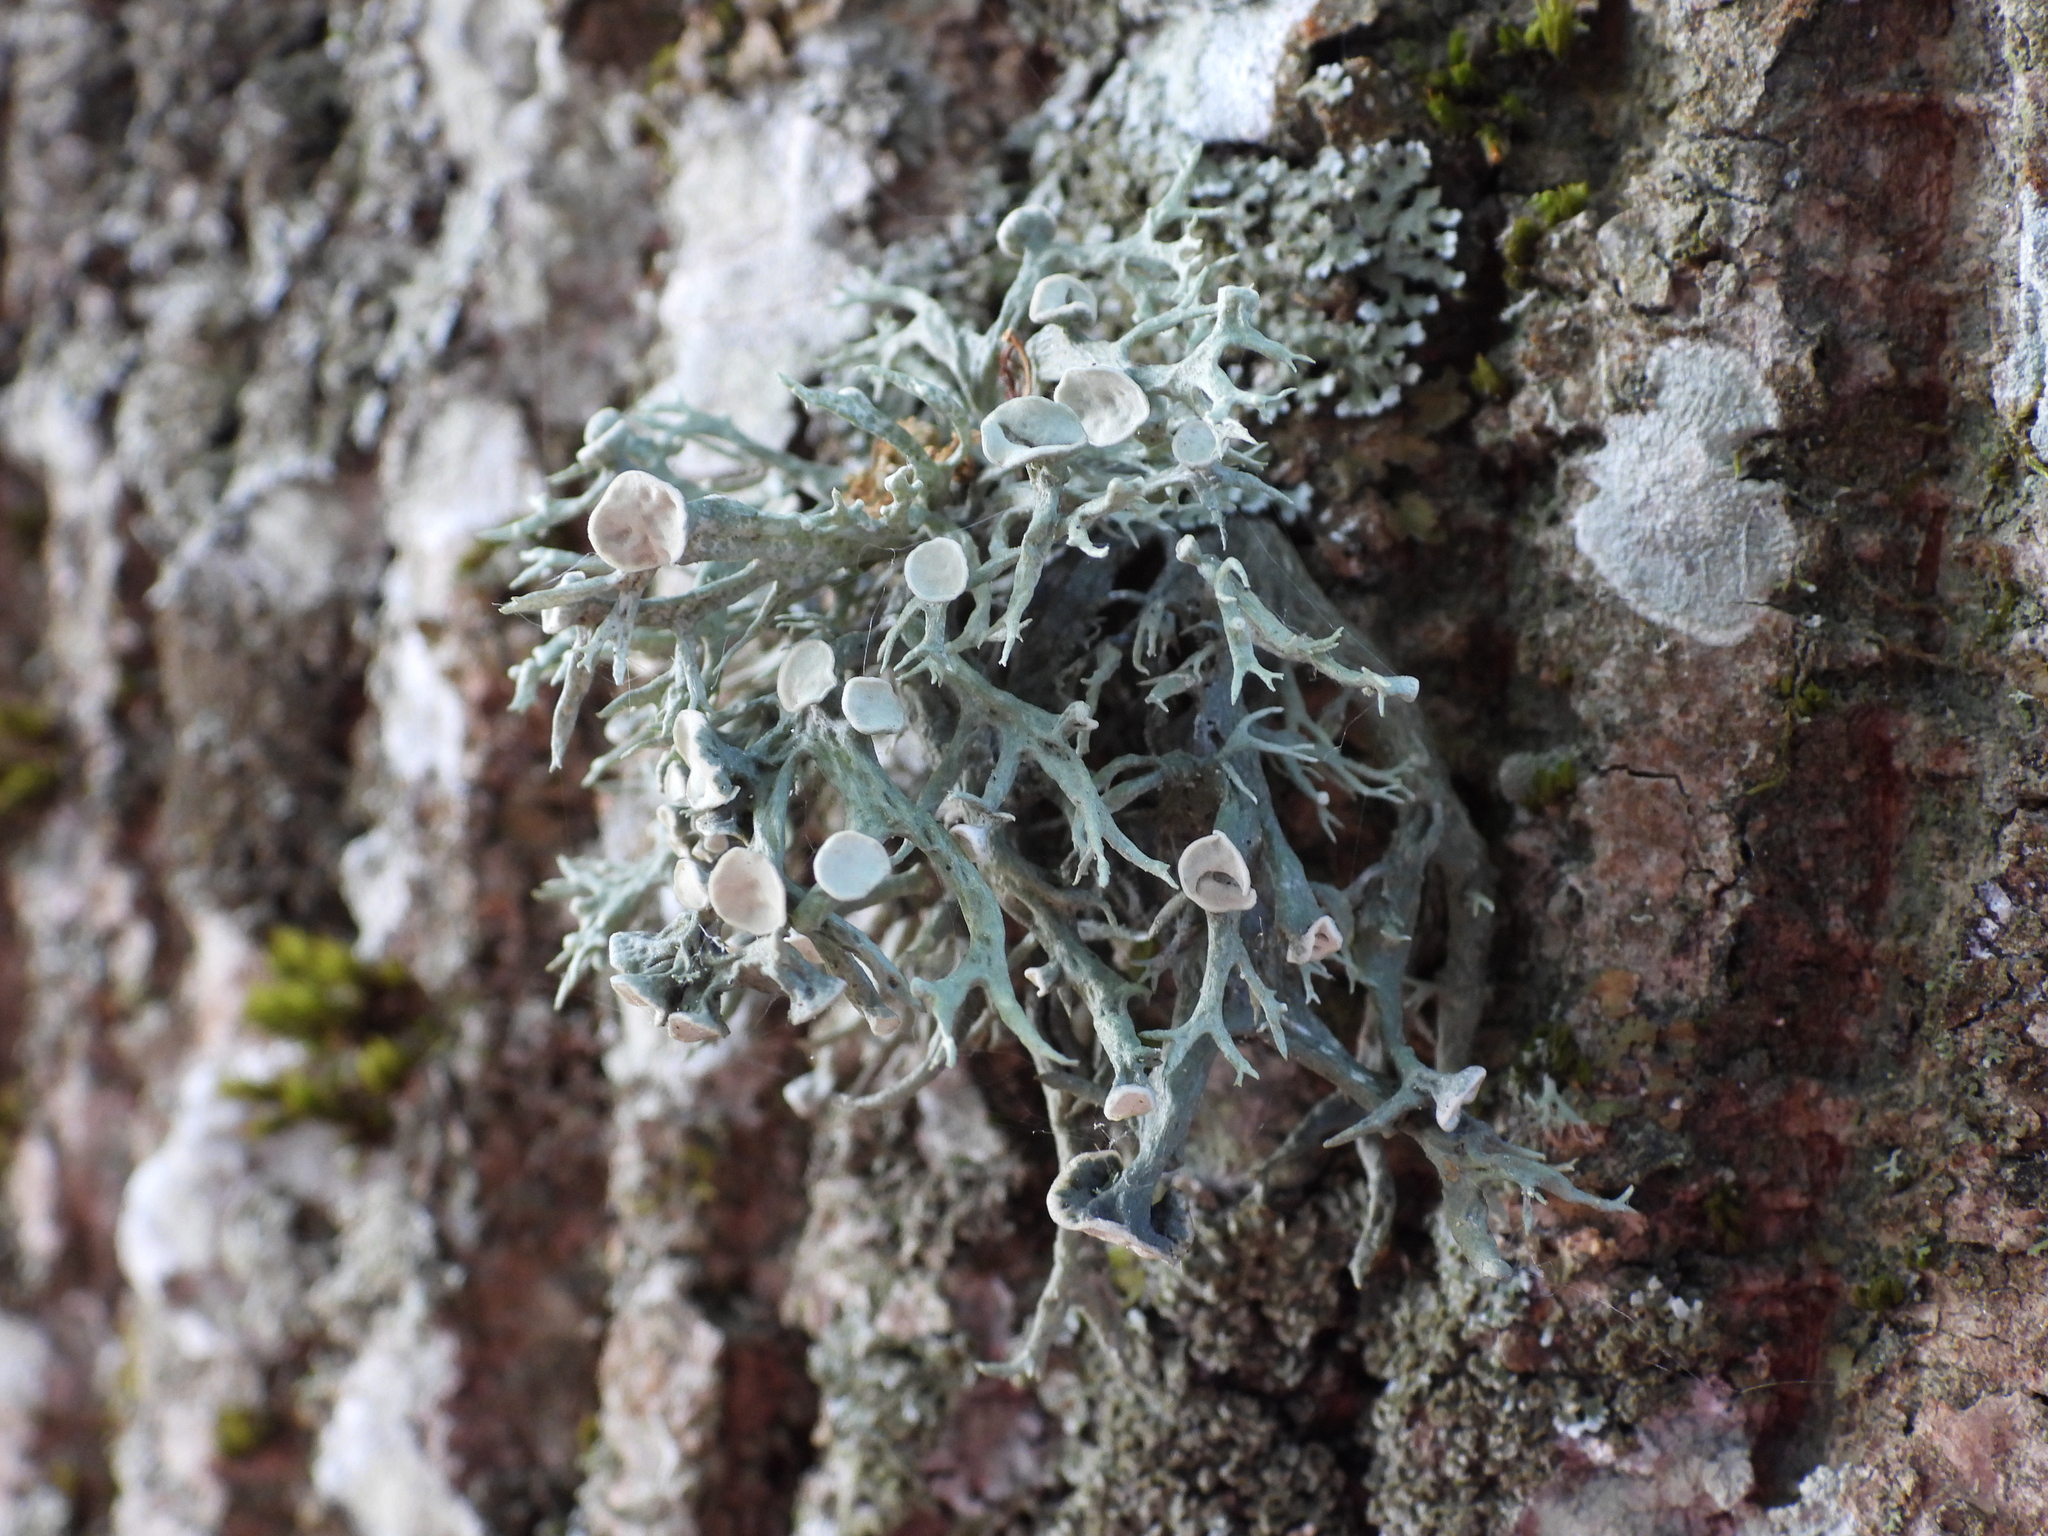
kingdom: Fungi
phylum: Ascomycota
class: Lecanoromycetes
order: Lecanorales
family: Ramalinaceae
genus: Ramalina
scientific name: Ramalina fastigiata
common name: Dotted ribbon lichen
